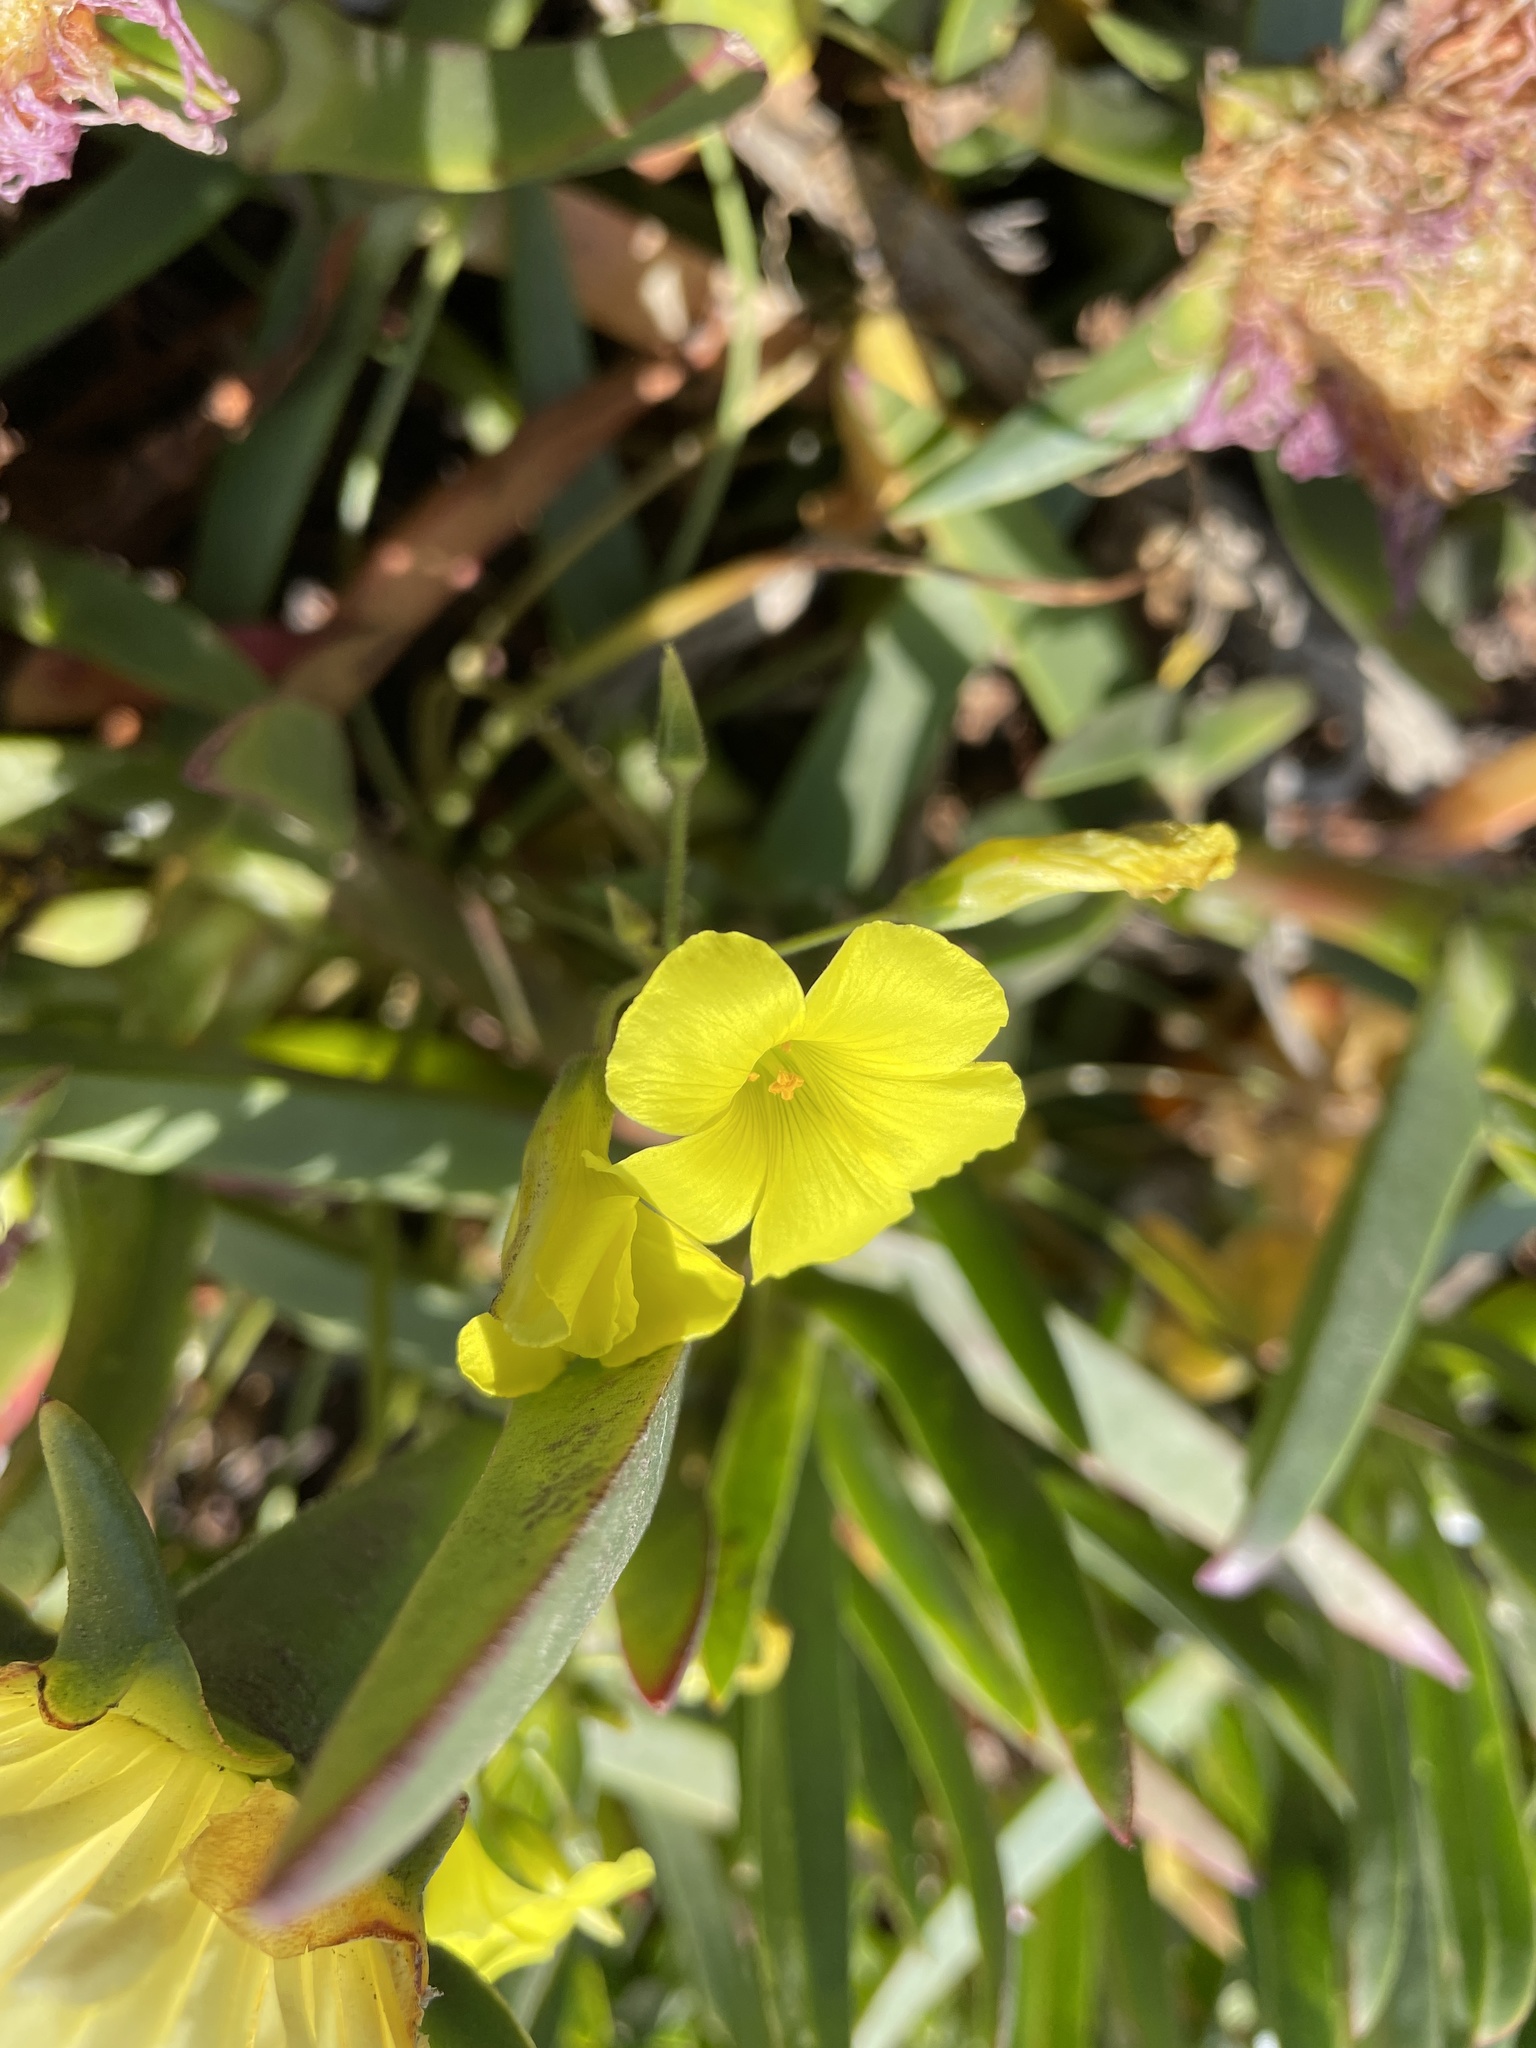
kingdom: Plantae
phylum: Tracheophyta
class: Magnoliopsida
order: Oxalidales
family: Oxalidaceae
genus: Oxalis
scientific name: Oxalis pes-caprae
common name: Bermuda-buttercup
